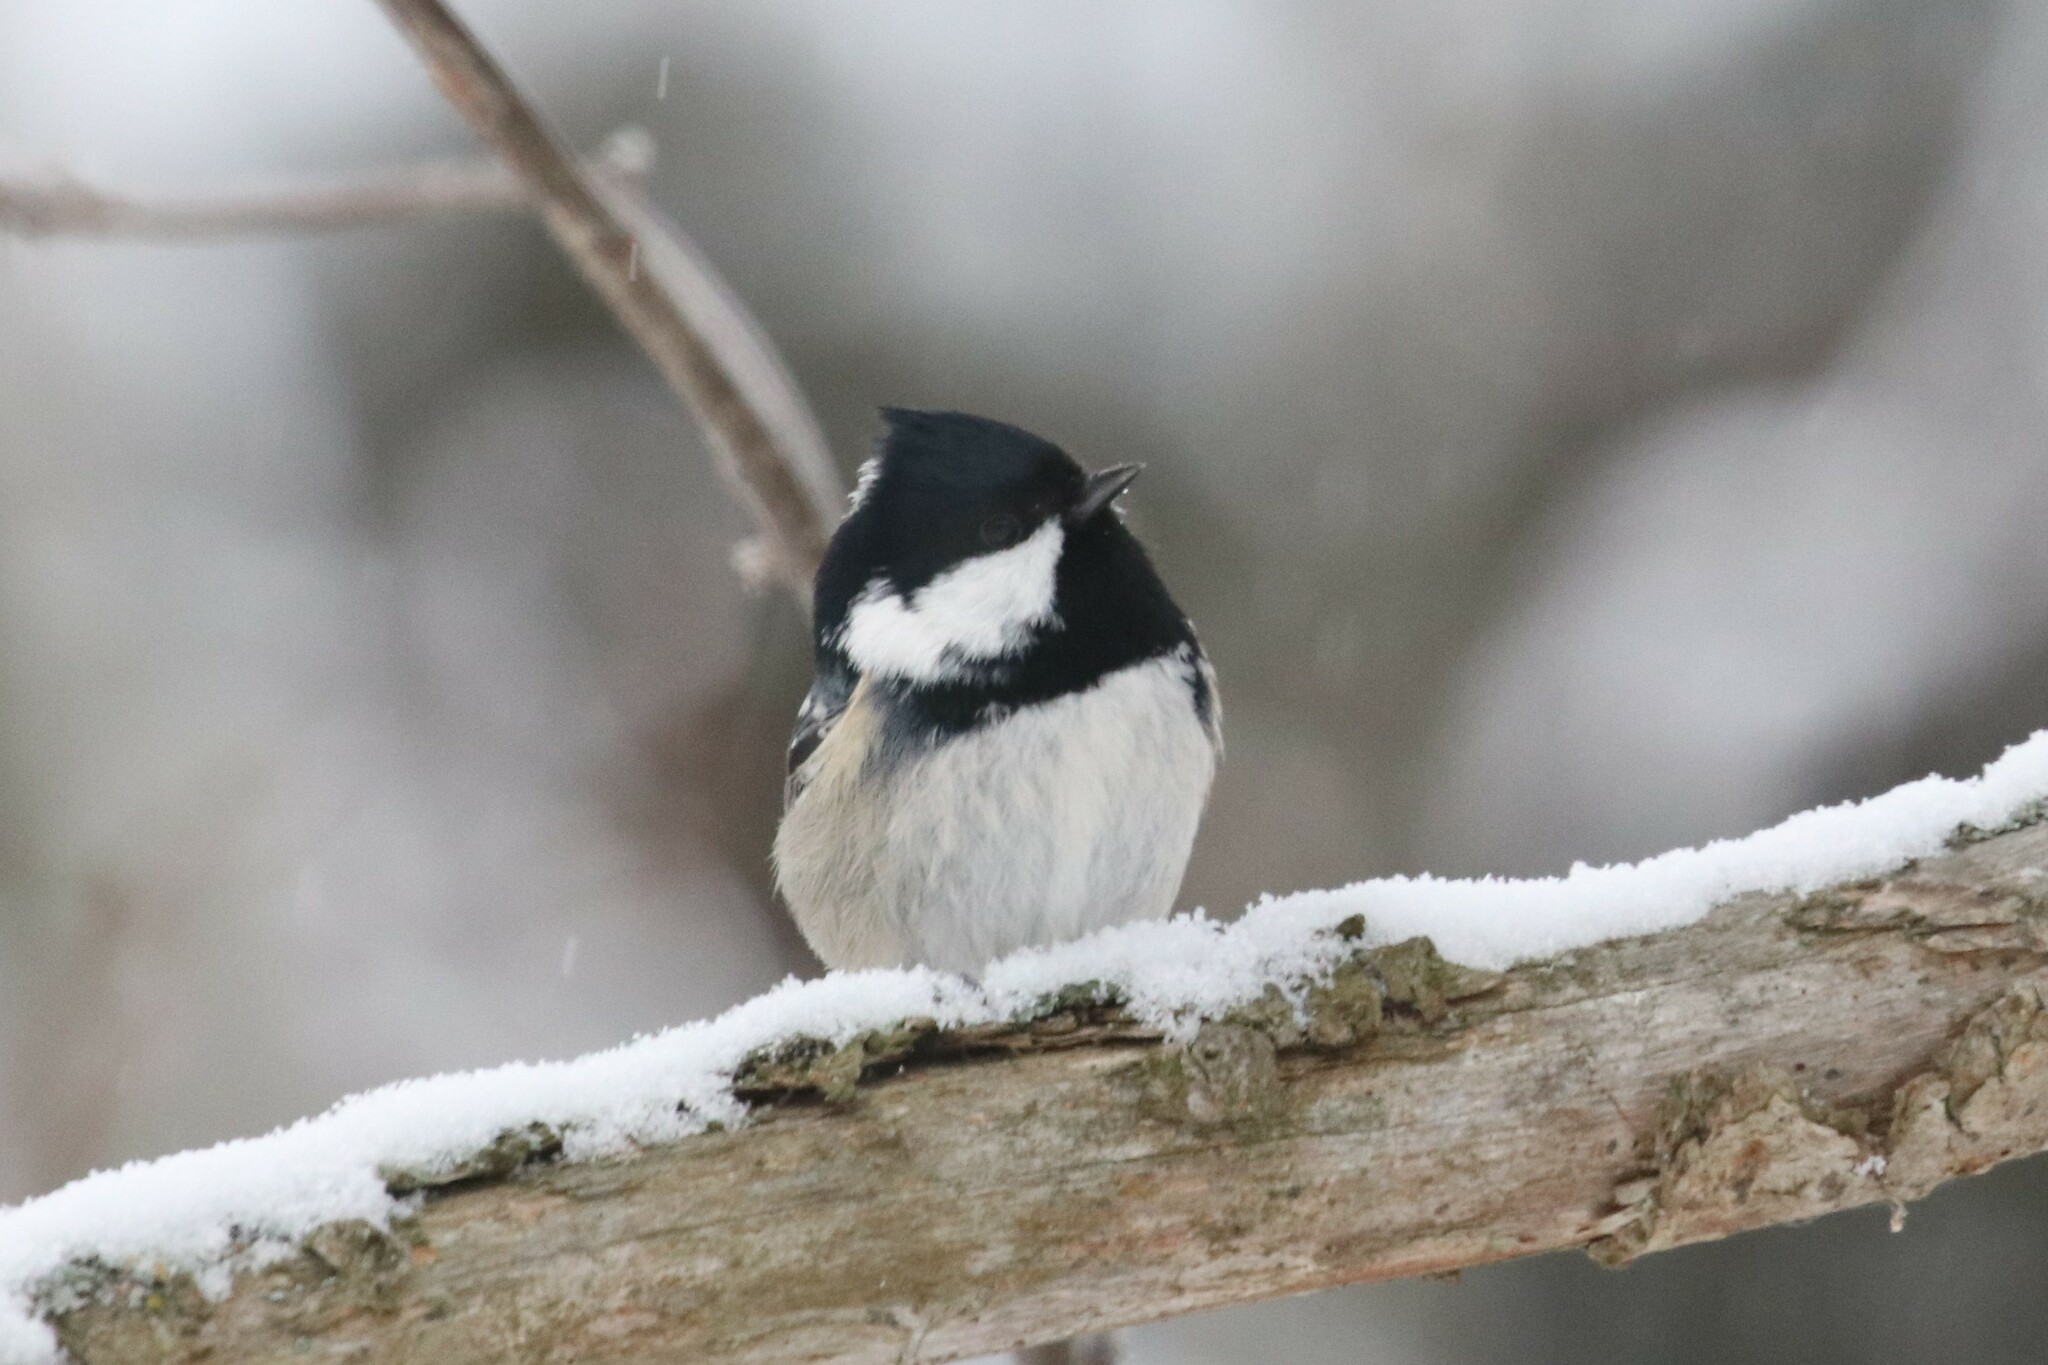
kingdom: Animalia
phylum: Chordata
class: Aves
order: Passeriformes
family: Paridae
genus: Periparus
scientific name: Periparus ater
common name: Coal tit
